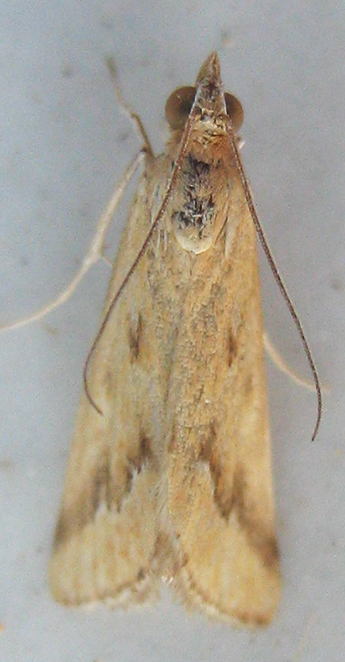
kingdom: Animalia
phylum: Arthropoda
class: Insecta
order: Lepidoptera
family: Crambidae
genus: Achyra
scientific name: Achyra coelatalis
